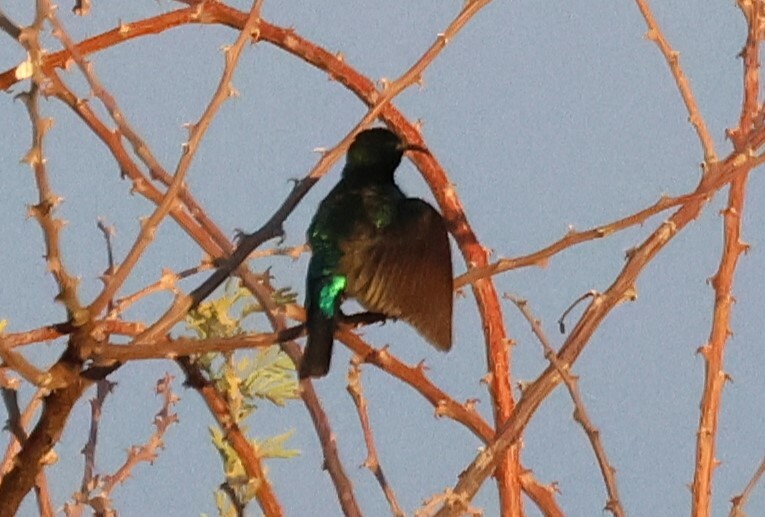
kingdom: Animalia
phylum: Chordata
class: Aves
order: Passeriformes
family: Nectariniidae
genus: Cinnyris
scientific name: Cinnyris mariquensis
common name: Marico sunbird
